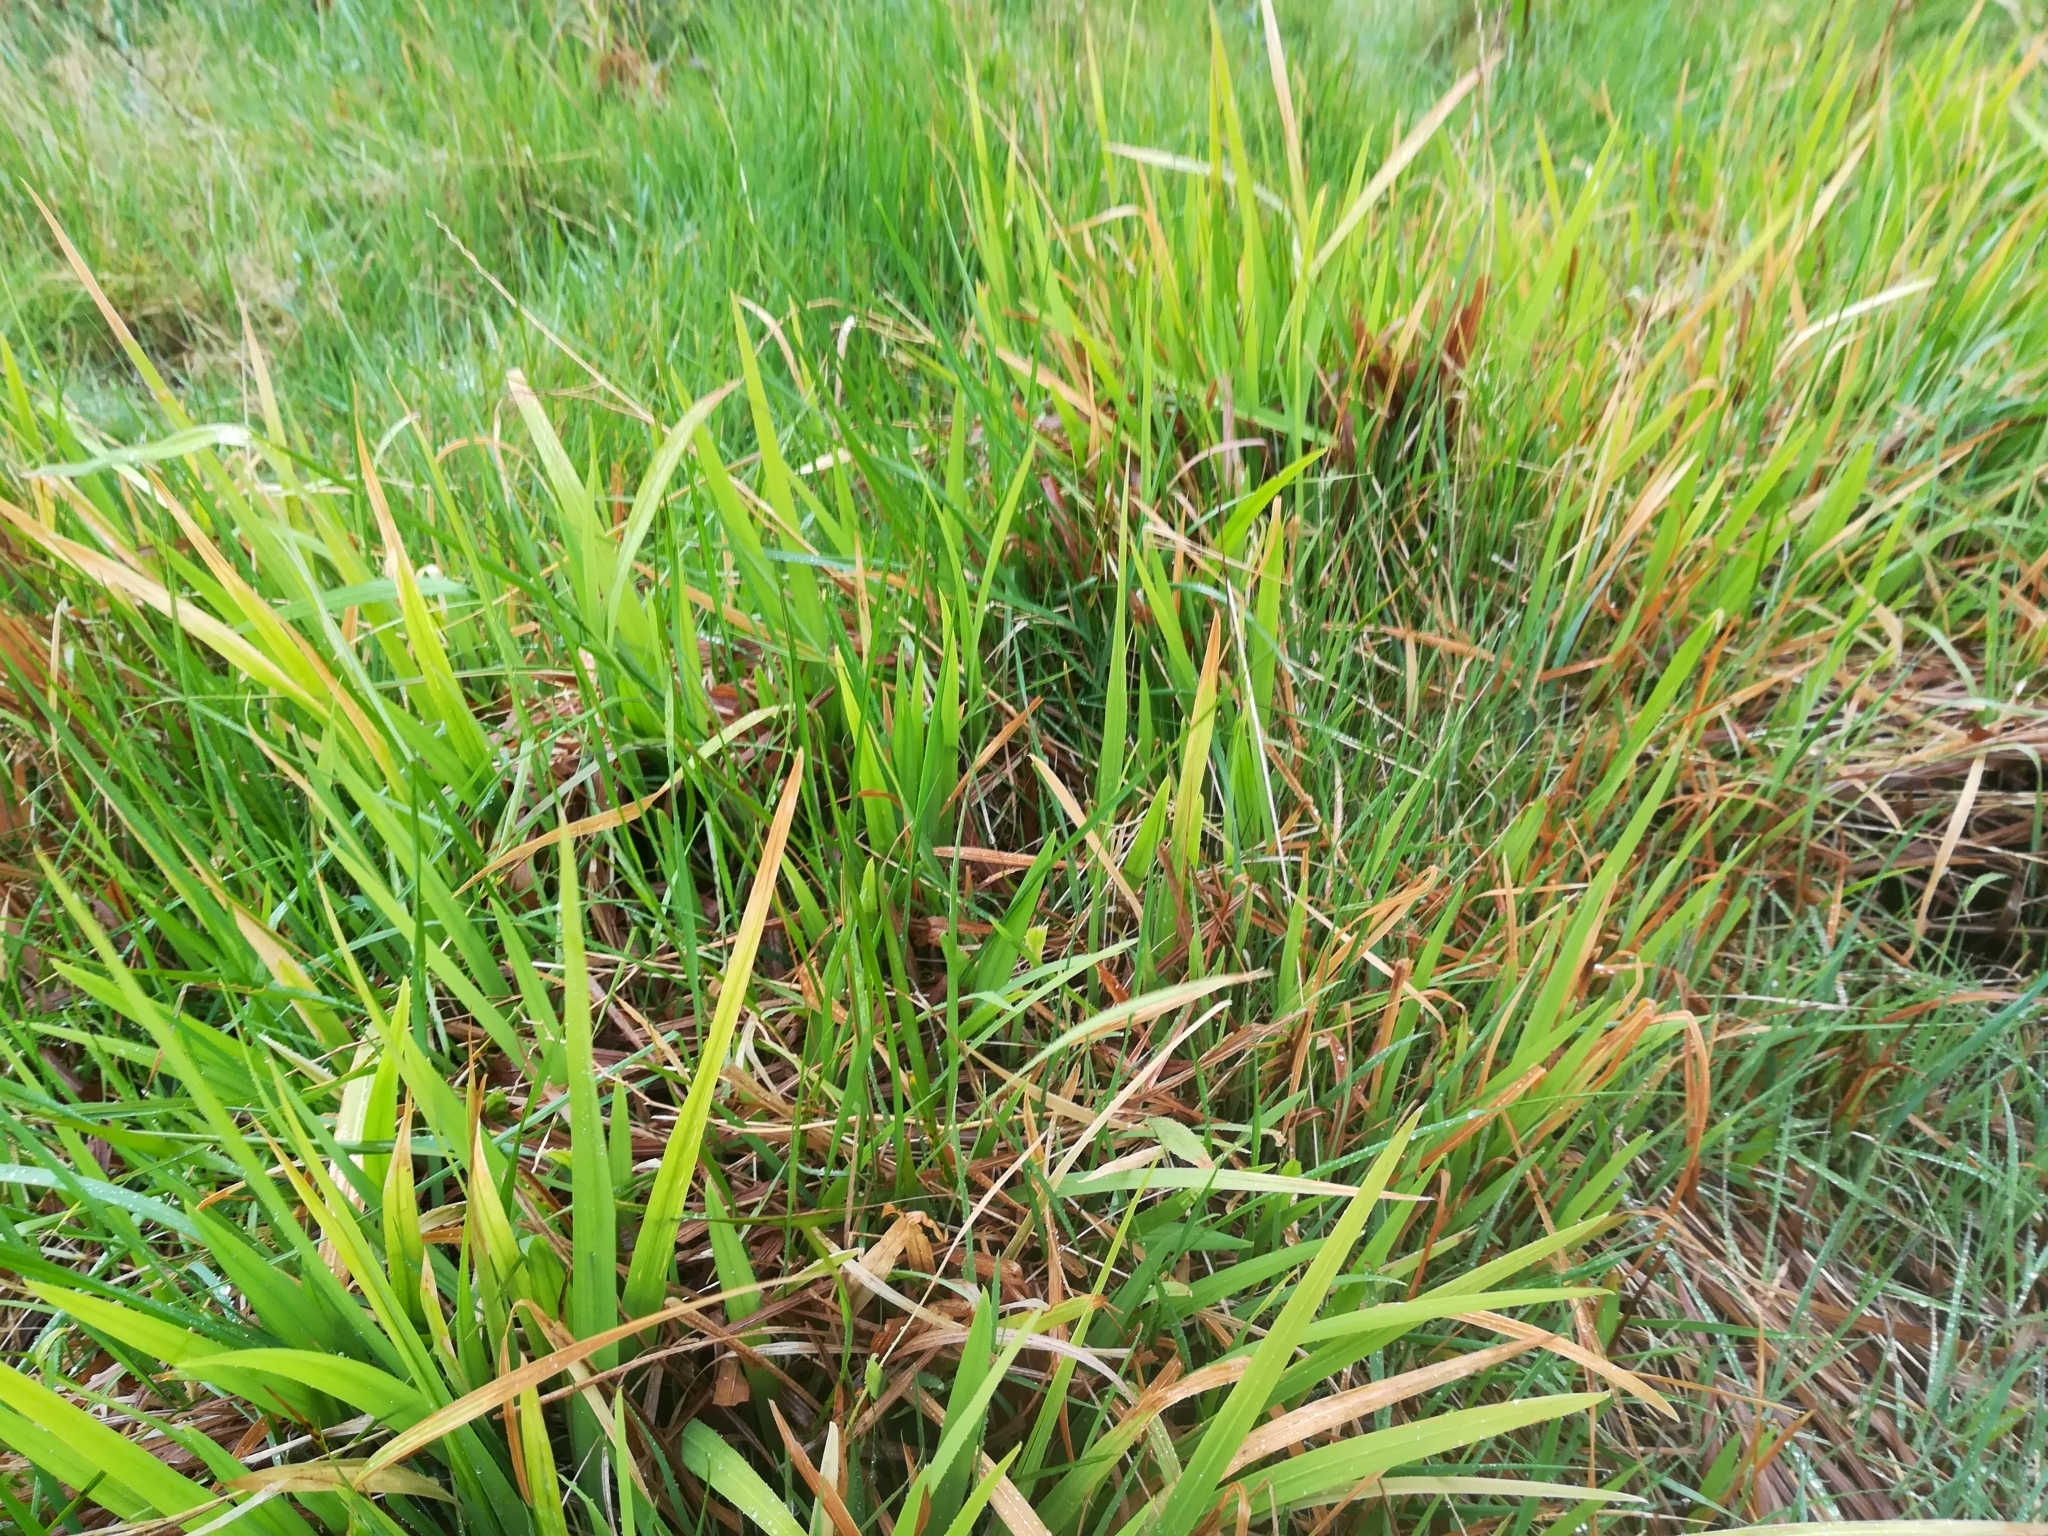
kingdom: Plantae
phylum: Tracheophyta
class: Liliopsida
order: Asparagales
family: Iridaceae
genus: Crocosmia
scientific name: Crocosmia crocosmiiflora
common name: Montbretia
